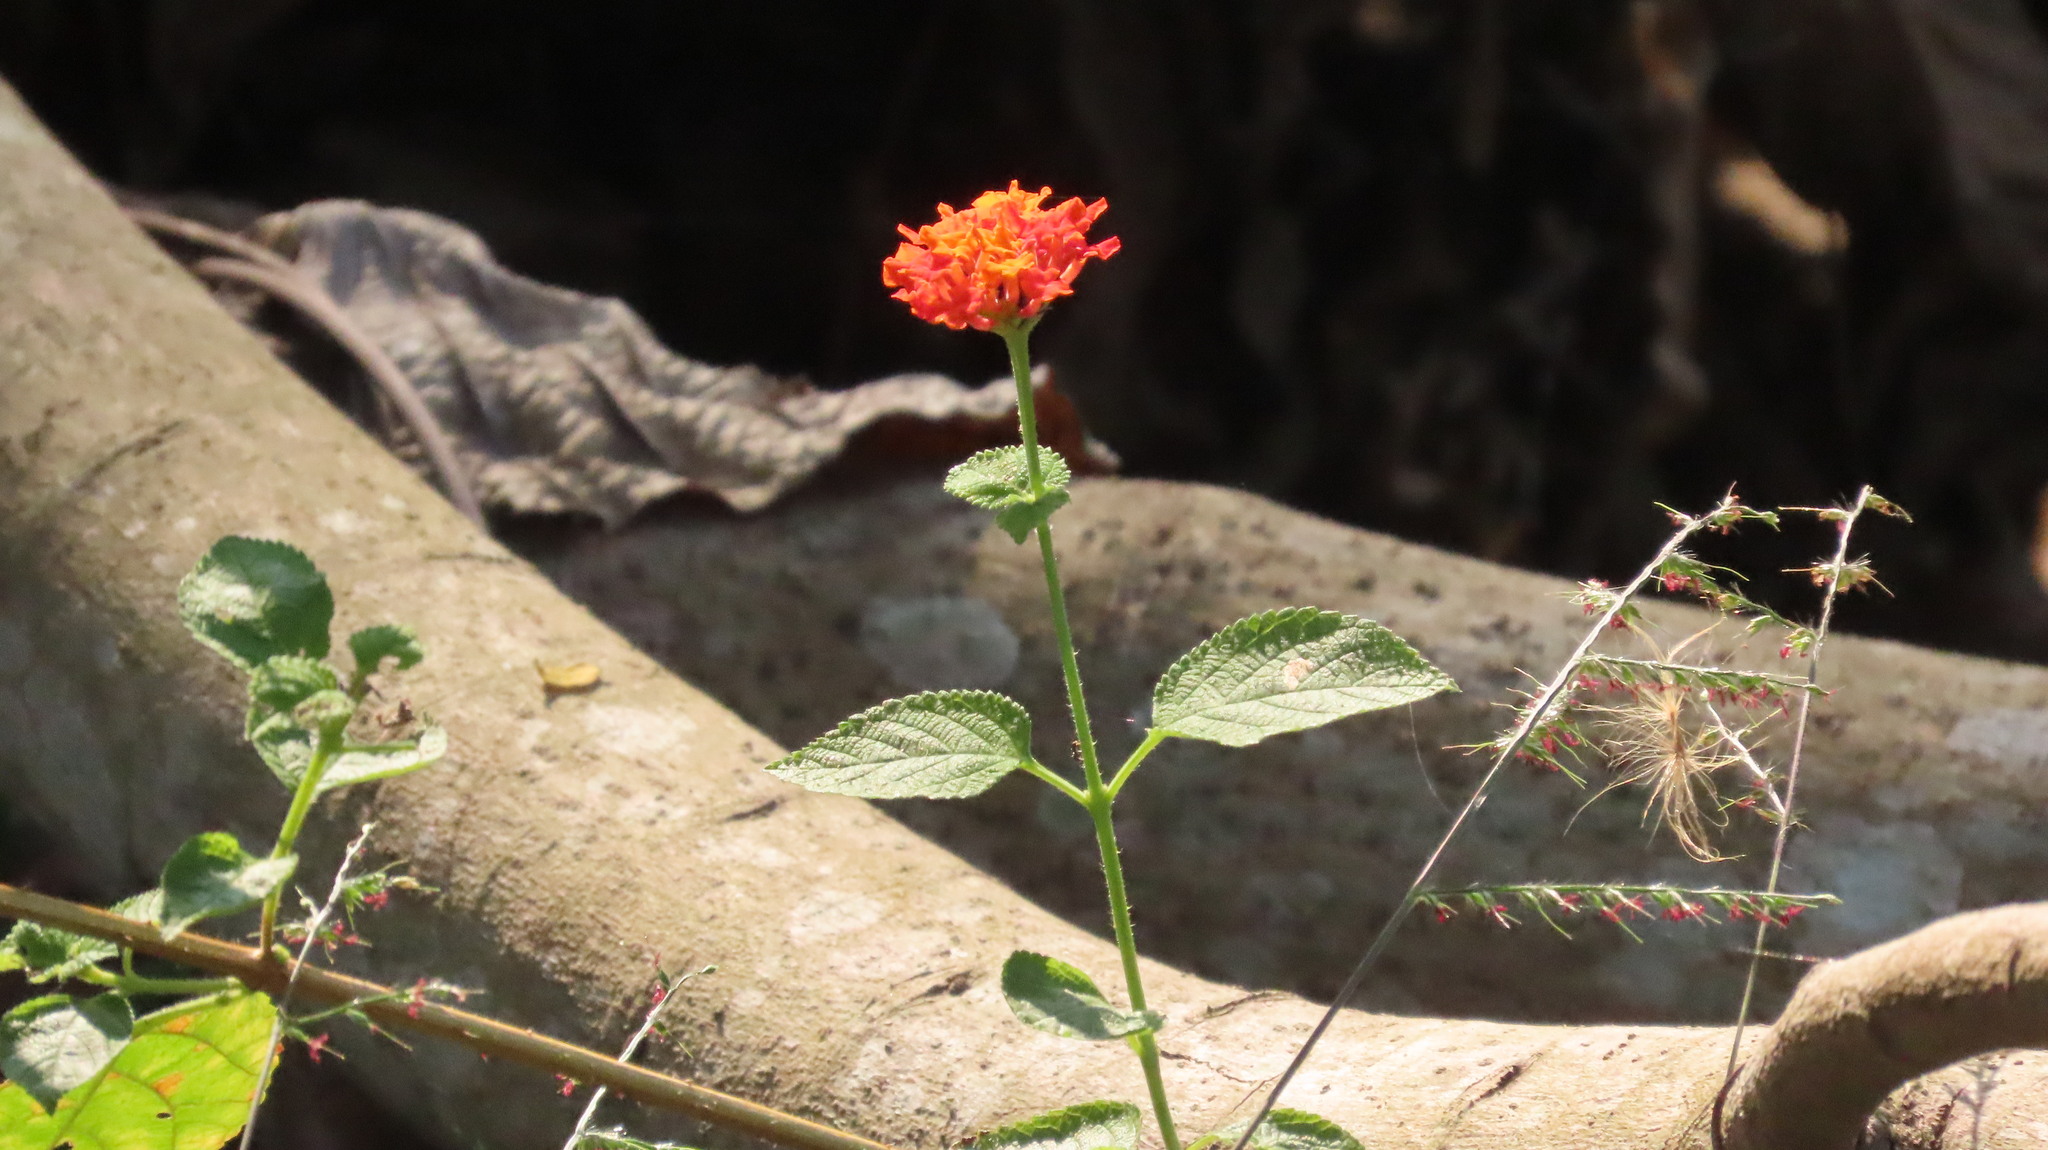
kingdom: Plantae
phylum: Tracheophyta
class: Magnoliopsida
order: Lamiales
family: Verbenaceae
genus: Lantana
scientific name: Lantana camara
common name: Lantana
